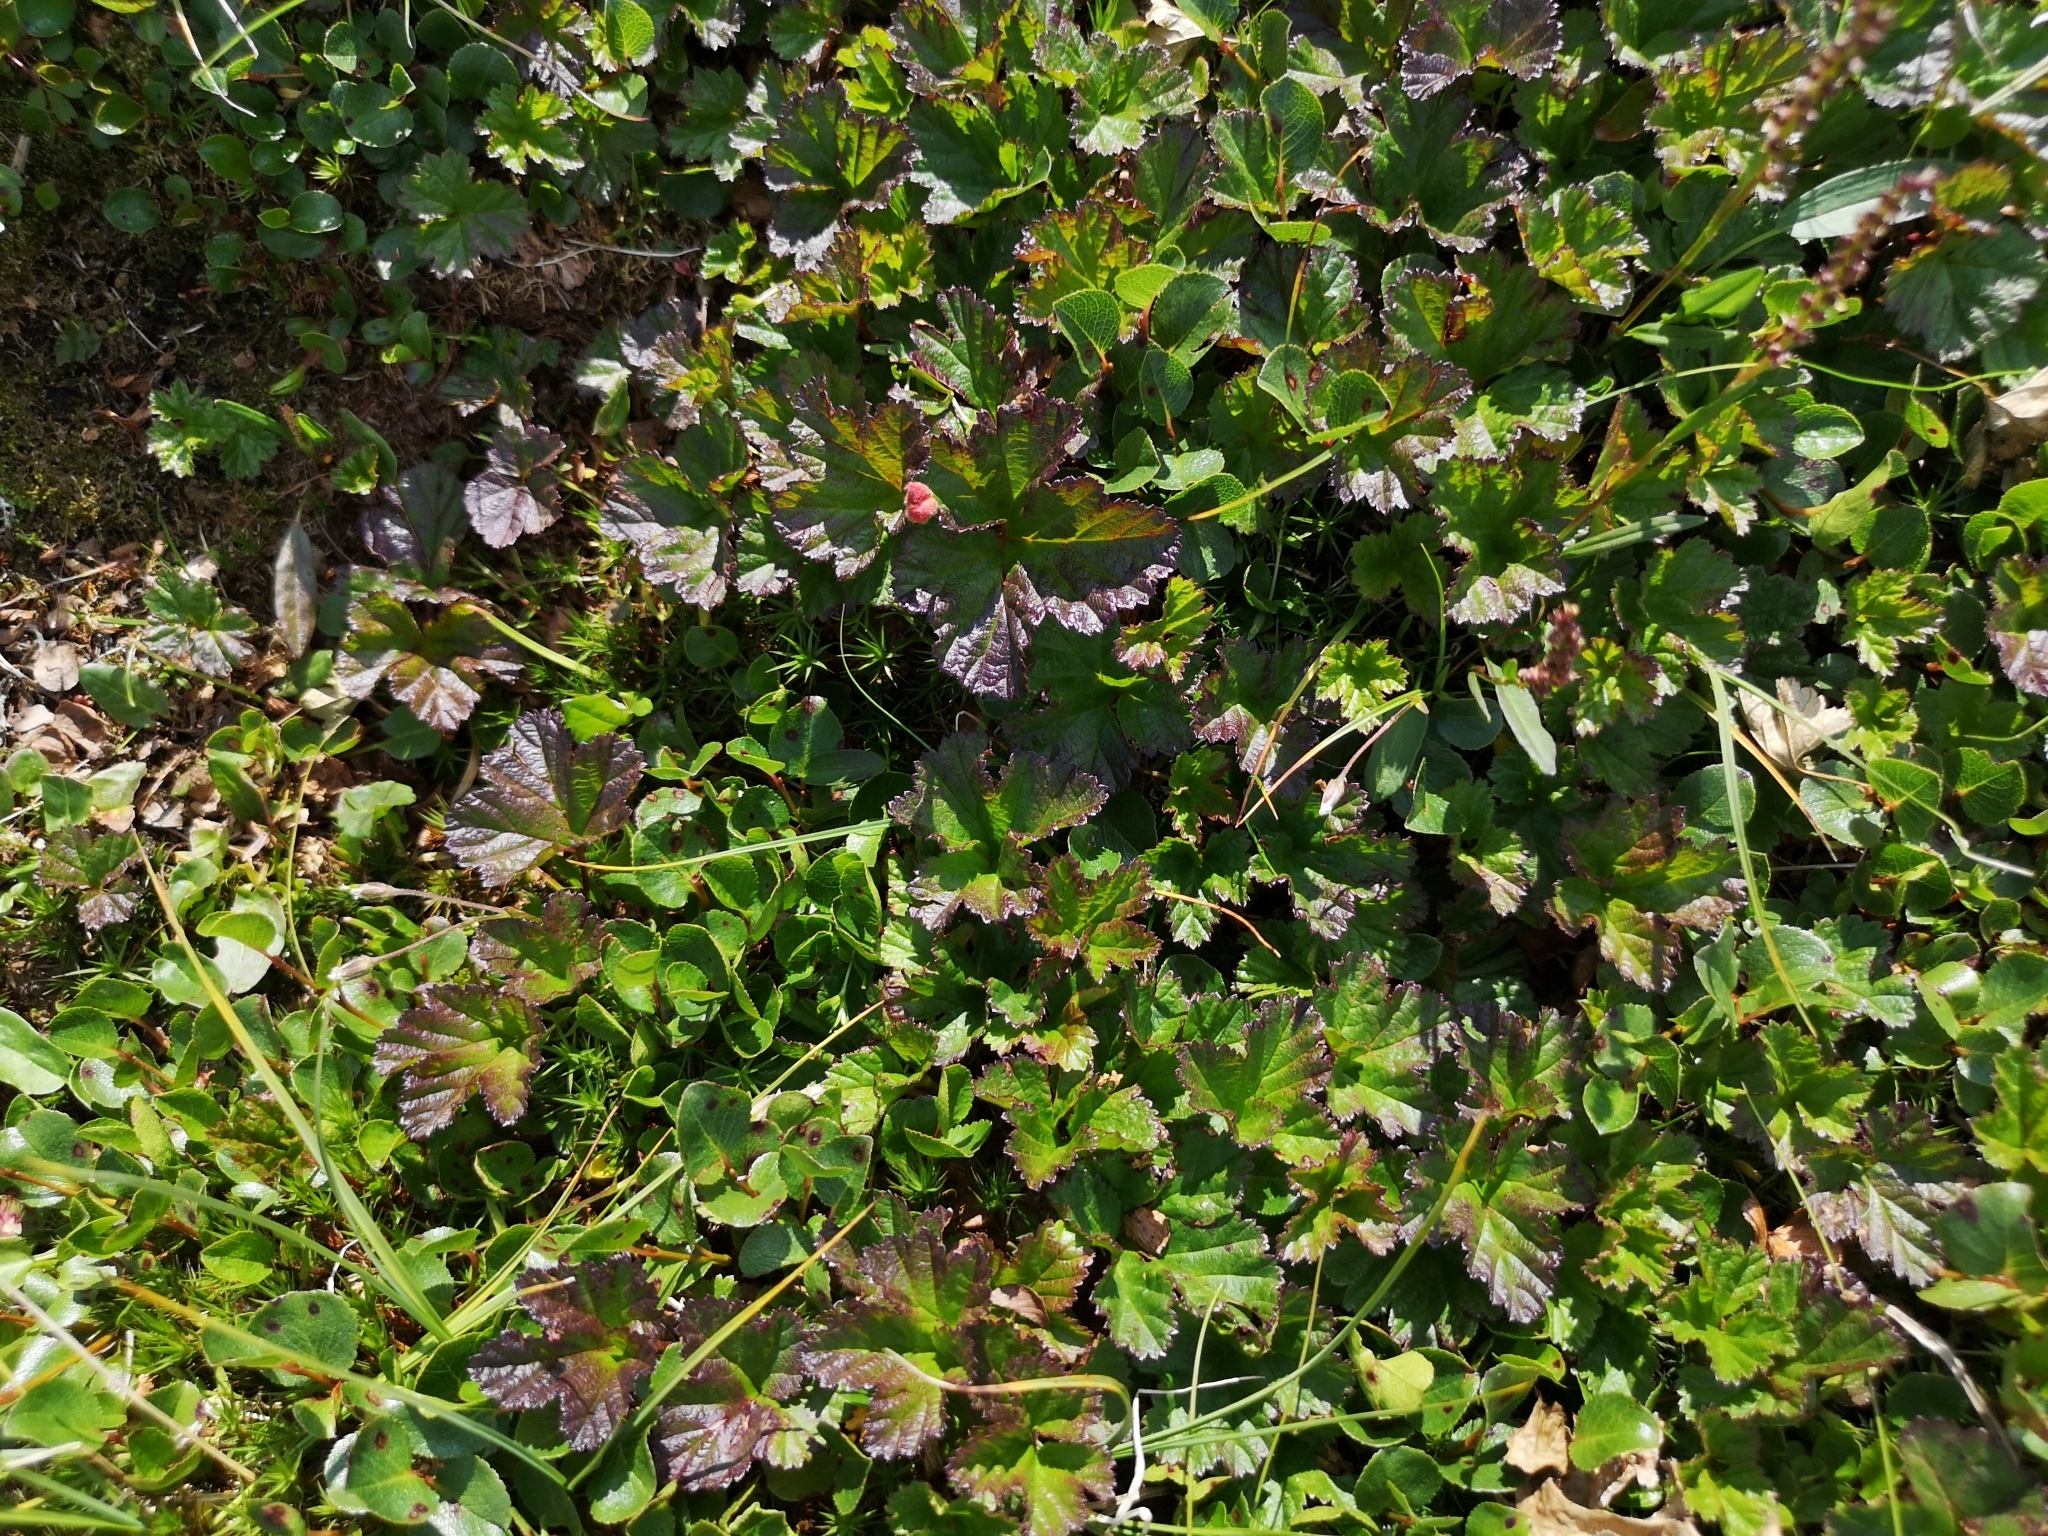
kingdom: Plantae
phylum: Tracheophyta
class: Magnoliopsida
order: Rosales
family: Rosaceae
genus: Rubus
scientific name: Rubus chamaemorus
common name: Cloudberry
